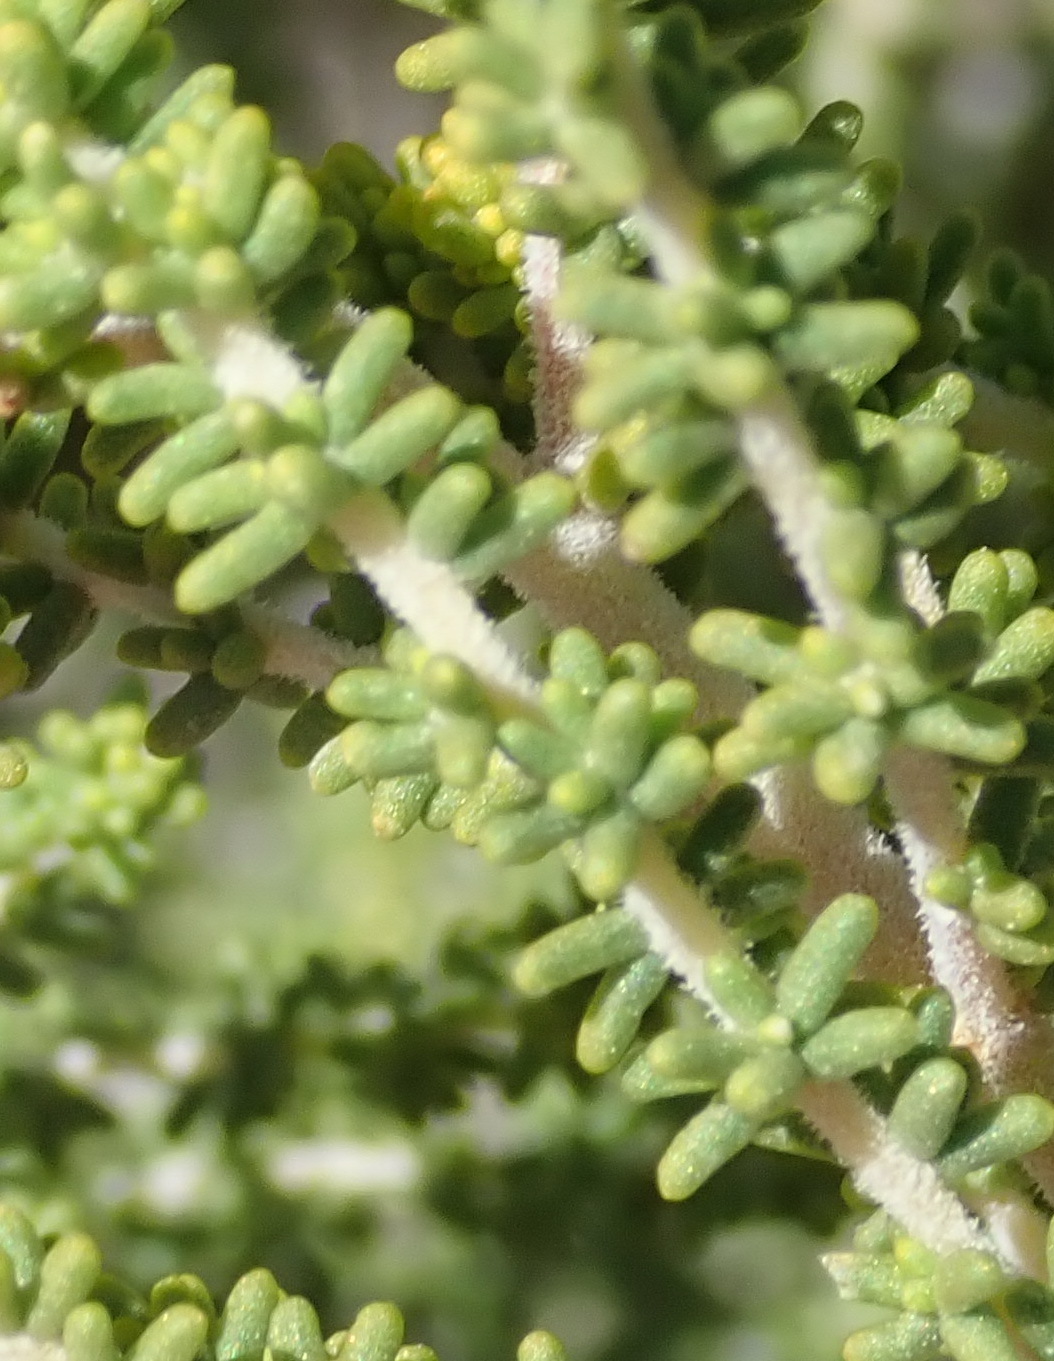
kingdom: Plantae
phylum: Tracheophyta
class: Magnoliopsida
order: Fabales
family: Fabaceae
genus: Aspalathus
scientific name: Aspalathus obtusifolia
